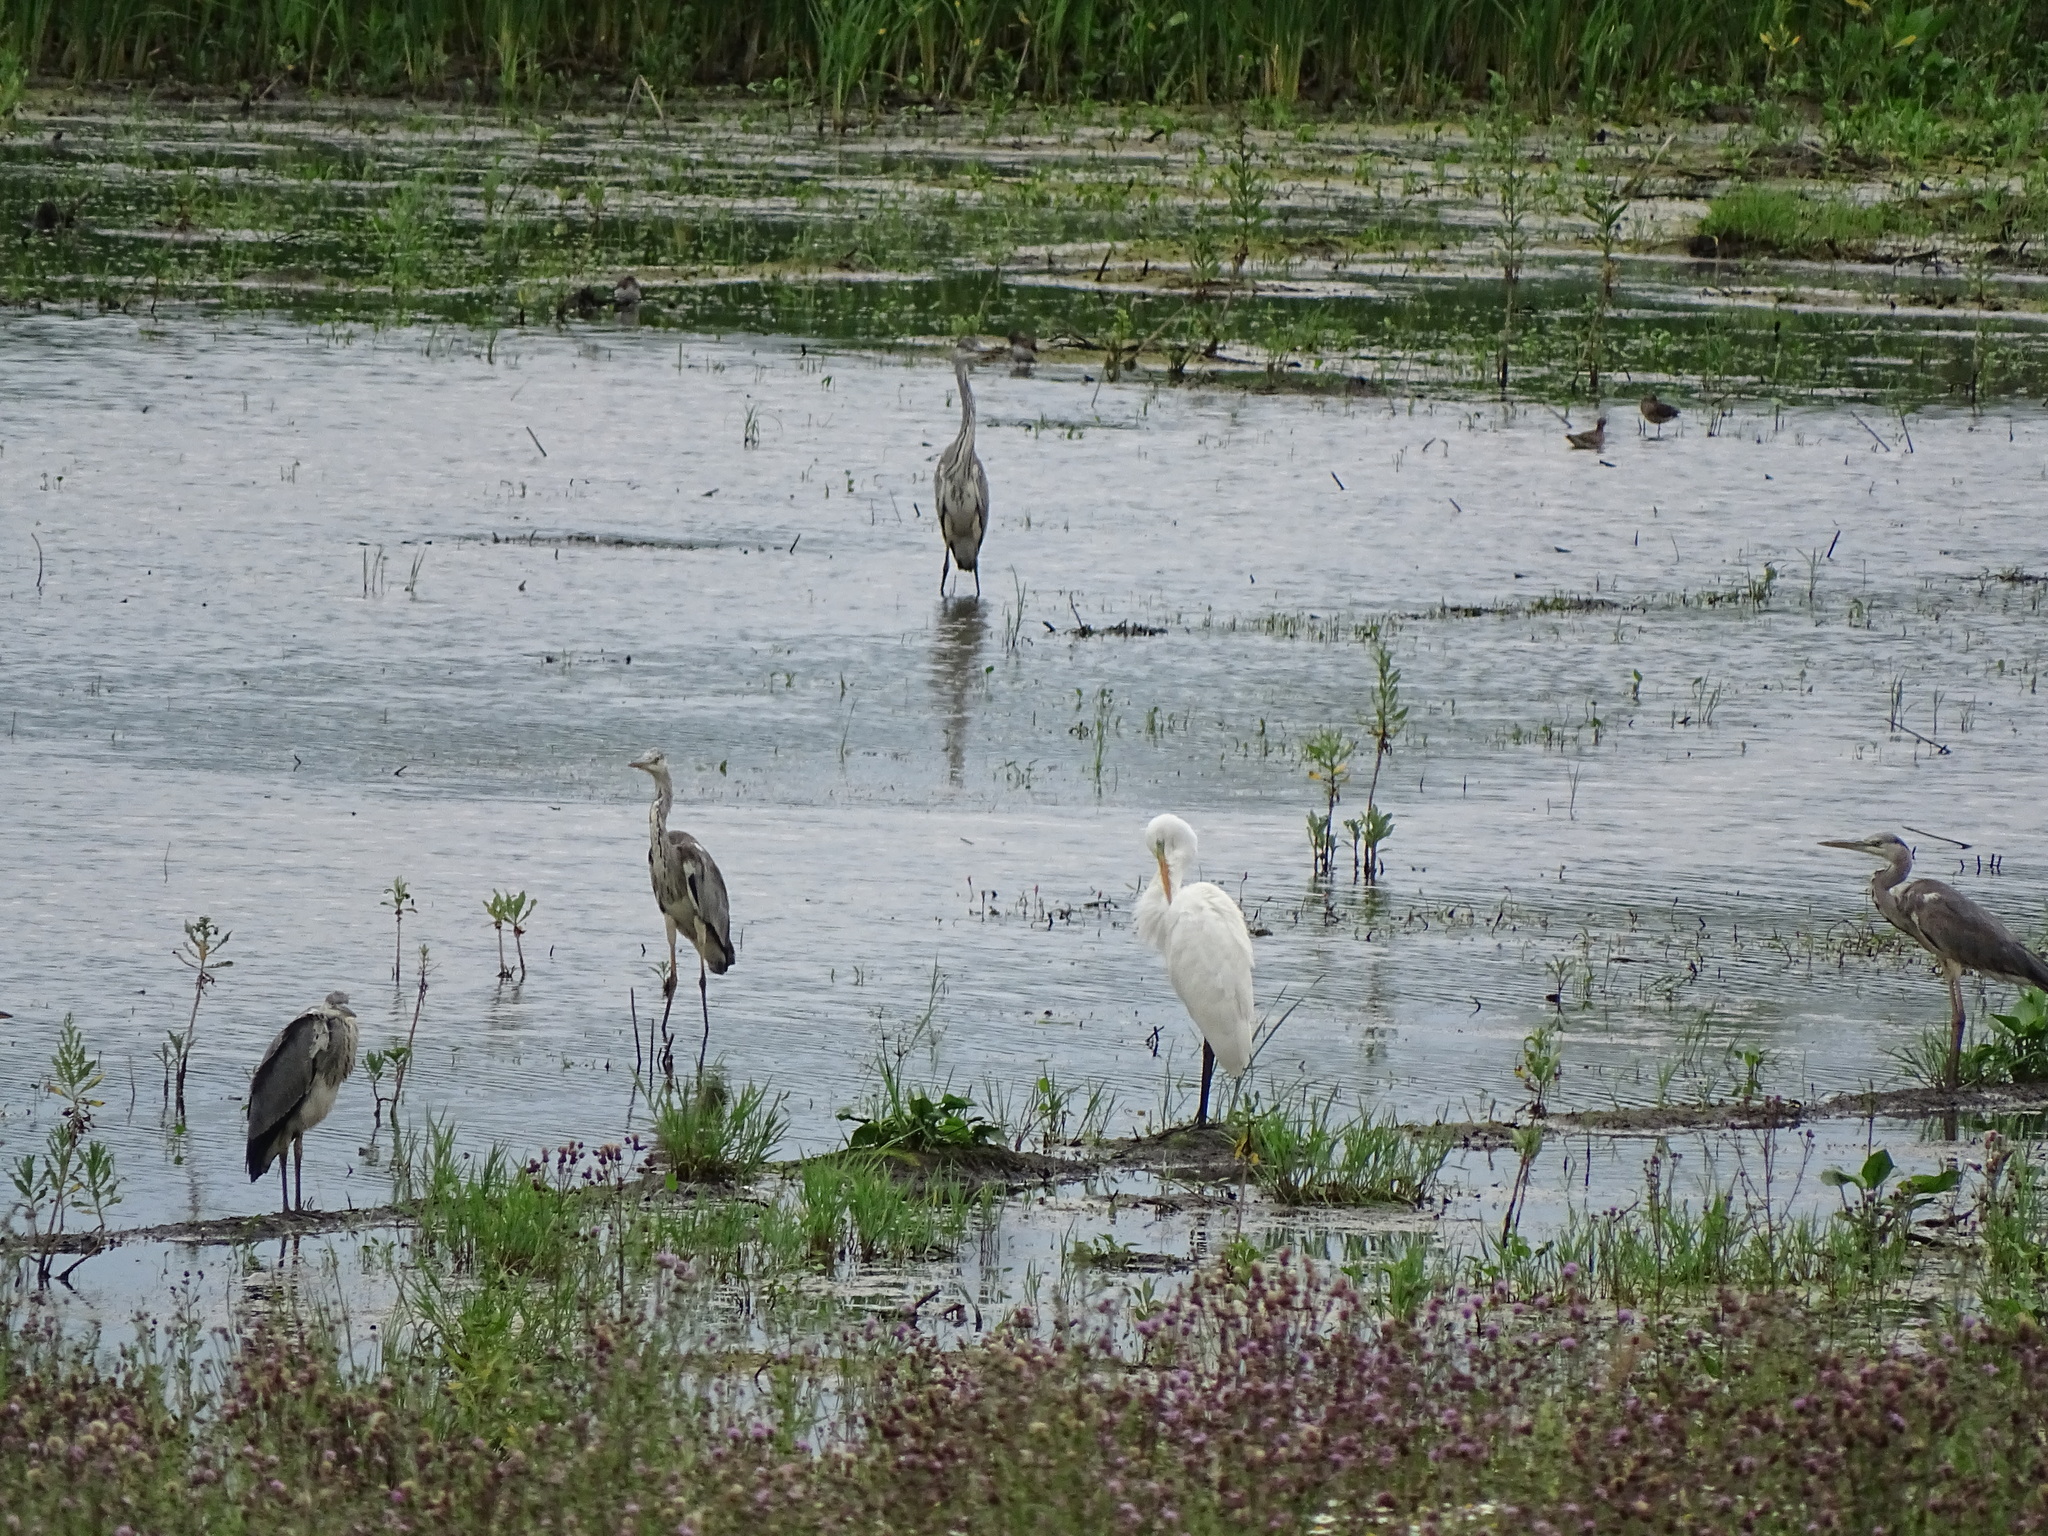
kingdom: Animalia
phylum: Chordata
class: Aves
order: Pelecaniformes
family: Ardeidae
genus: Ardea
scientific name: Ardea cinerea
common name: Grey heron
